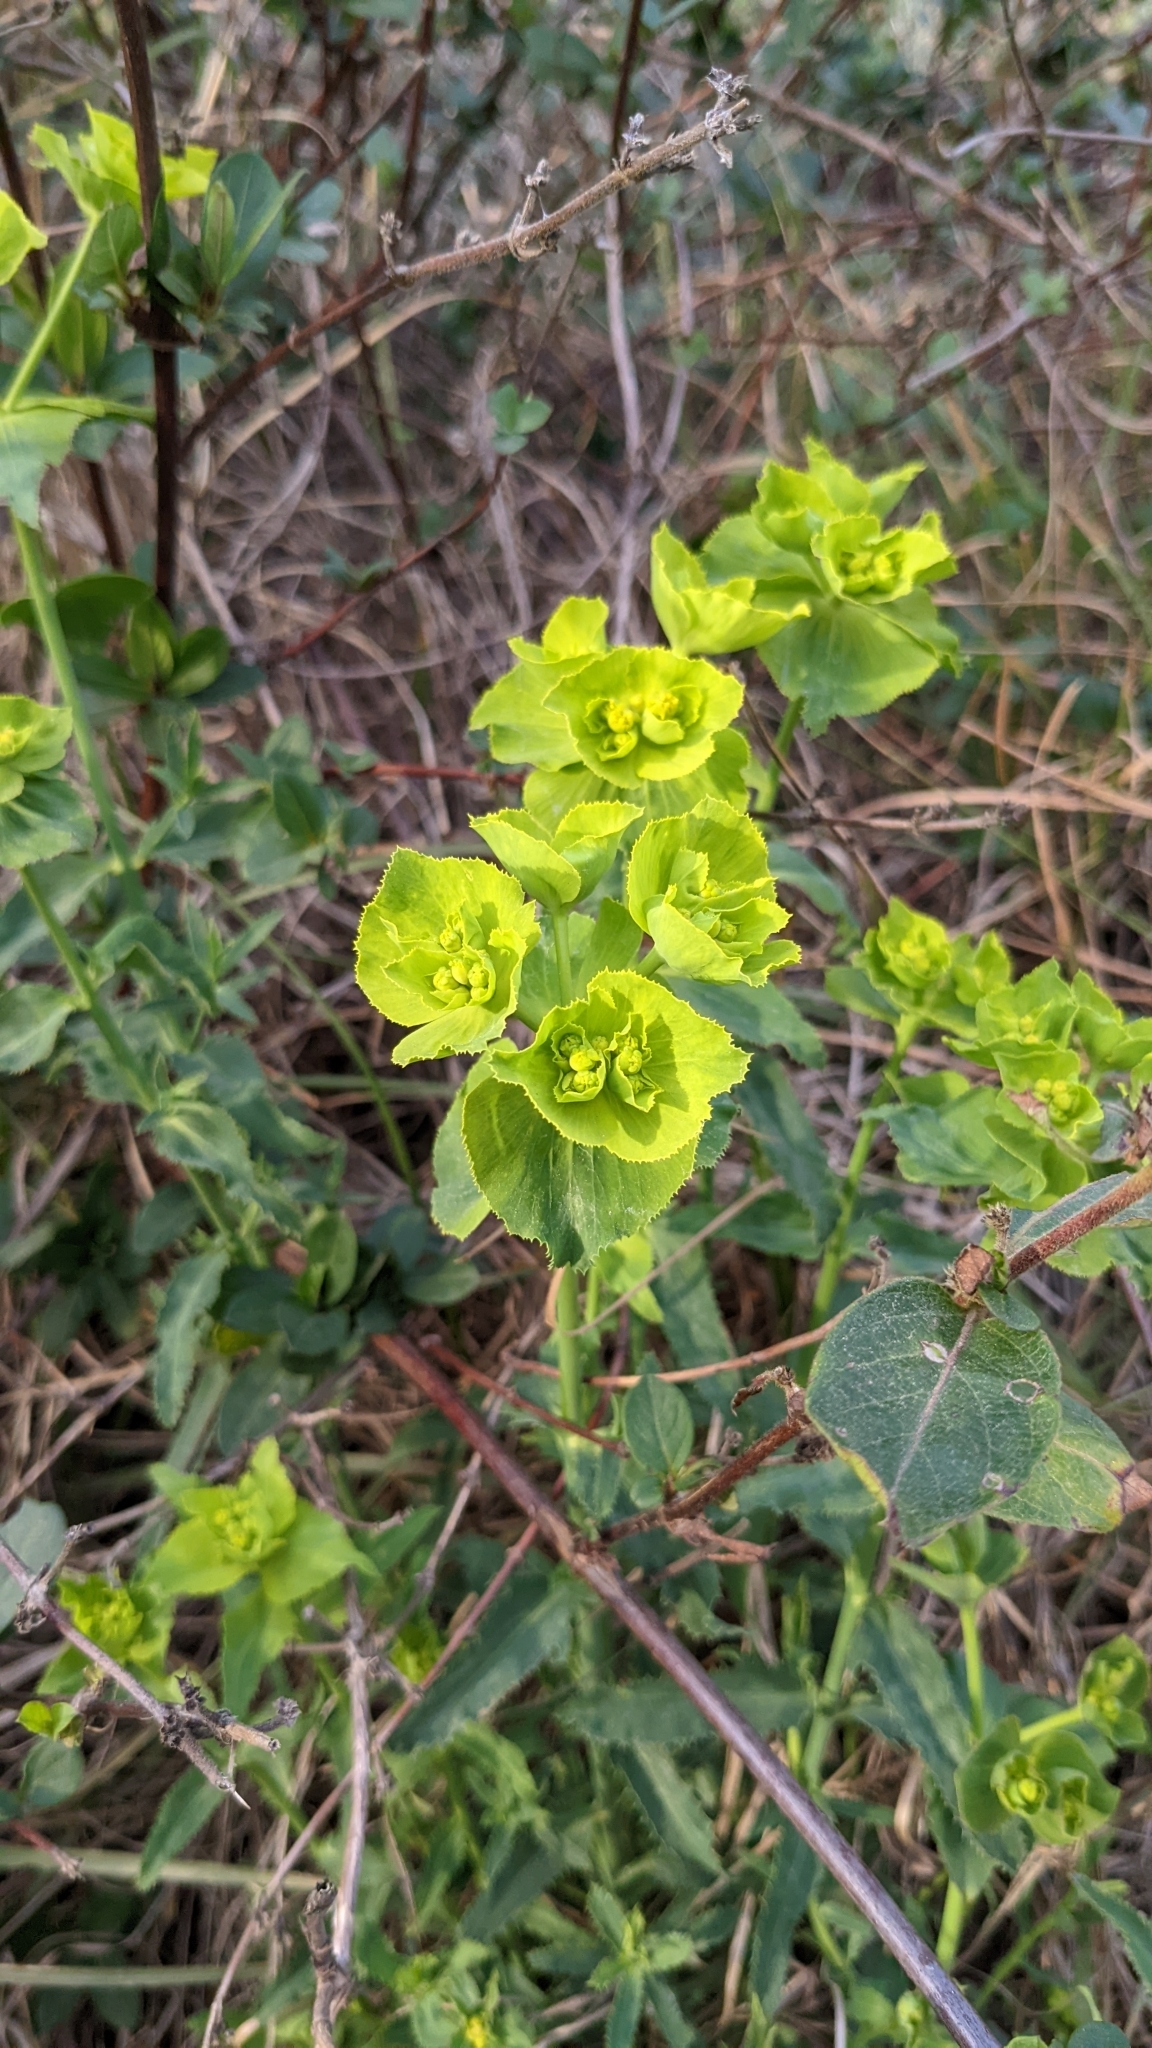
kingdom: Plantae
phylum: Tracheophyta
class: Magnoliopsida
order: Malpighiales
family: Euphorbiaceae
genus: Euphorbia
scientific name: Euphorbia serrata
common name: Serrate spurge
